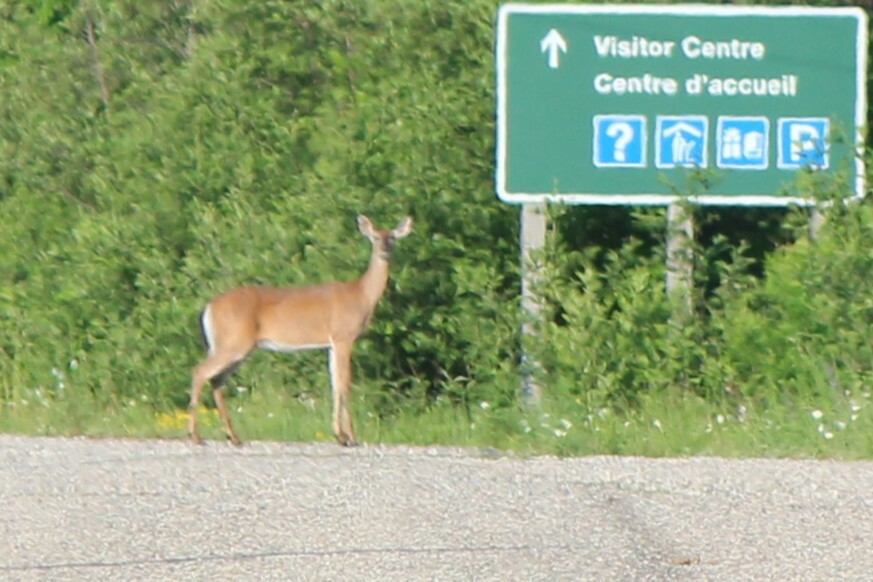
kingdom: Animalia
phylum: Chordata
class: Mammalia
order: Artiodactyla
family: Cervidae
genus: Odocoileus
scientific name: Odocoileus virginianus
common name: White-tailed deer
